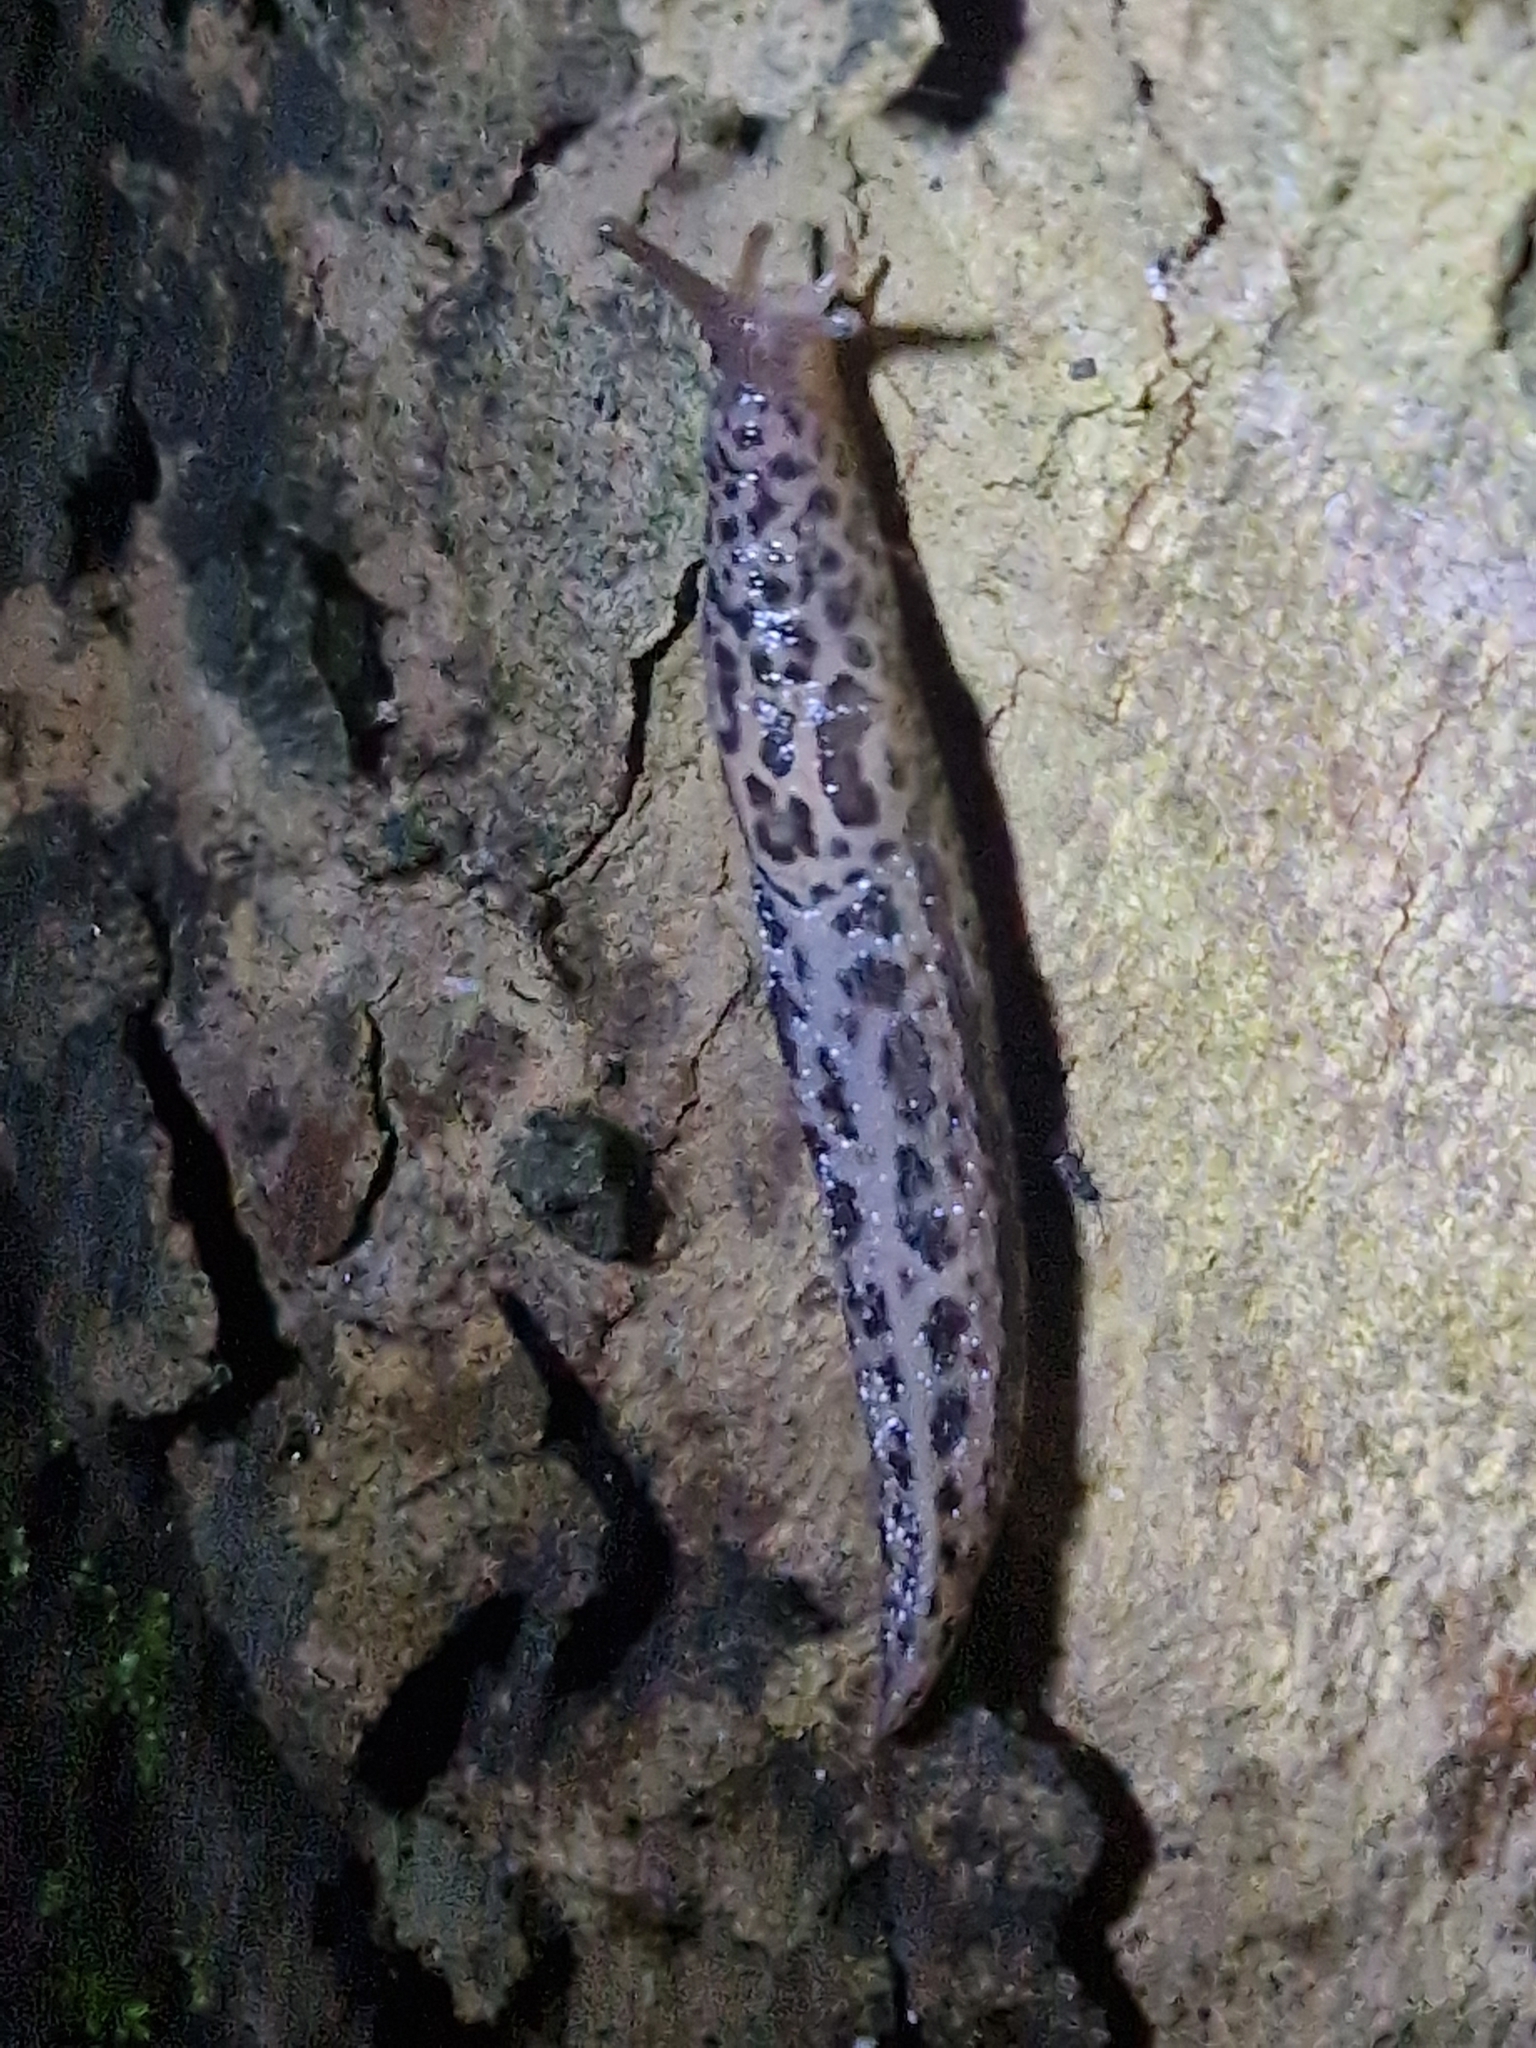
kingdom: Animalia
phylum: Mollusca
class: Gastropoda
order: Stylommatophora
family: Limacidae
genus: Limax
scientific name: Limax maximus
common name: Great grey slug
